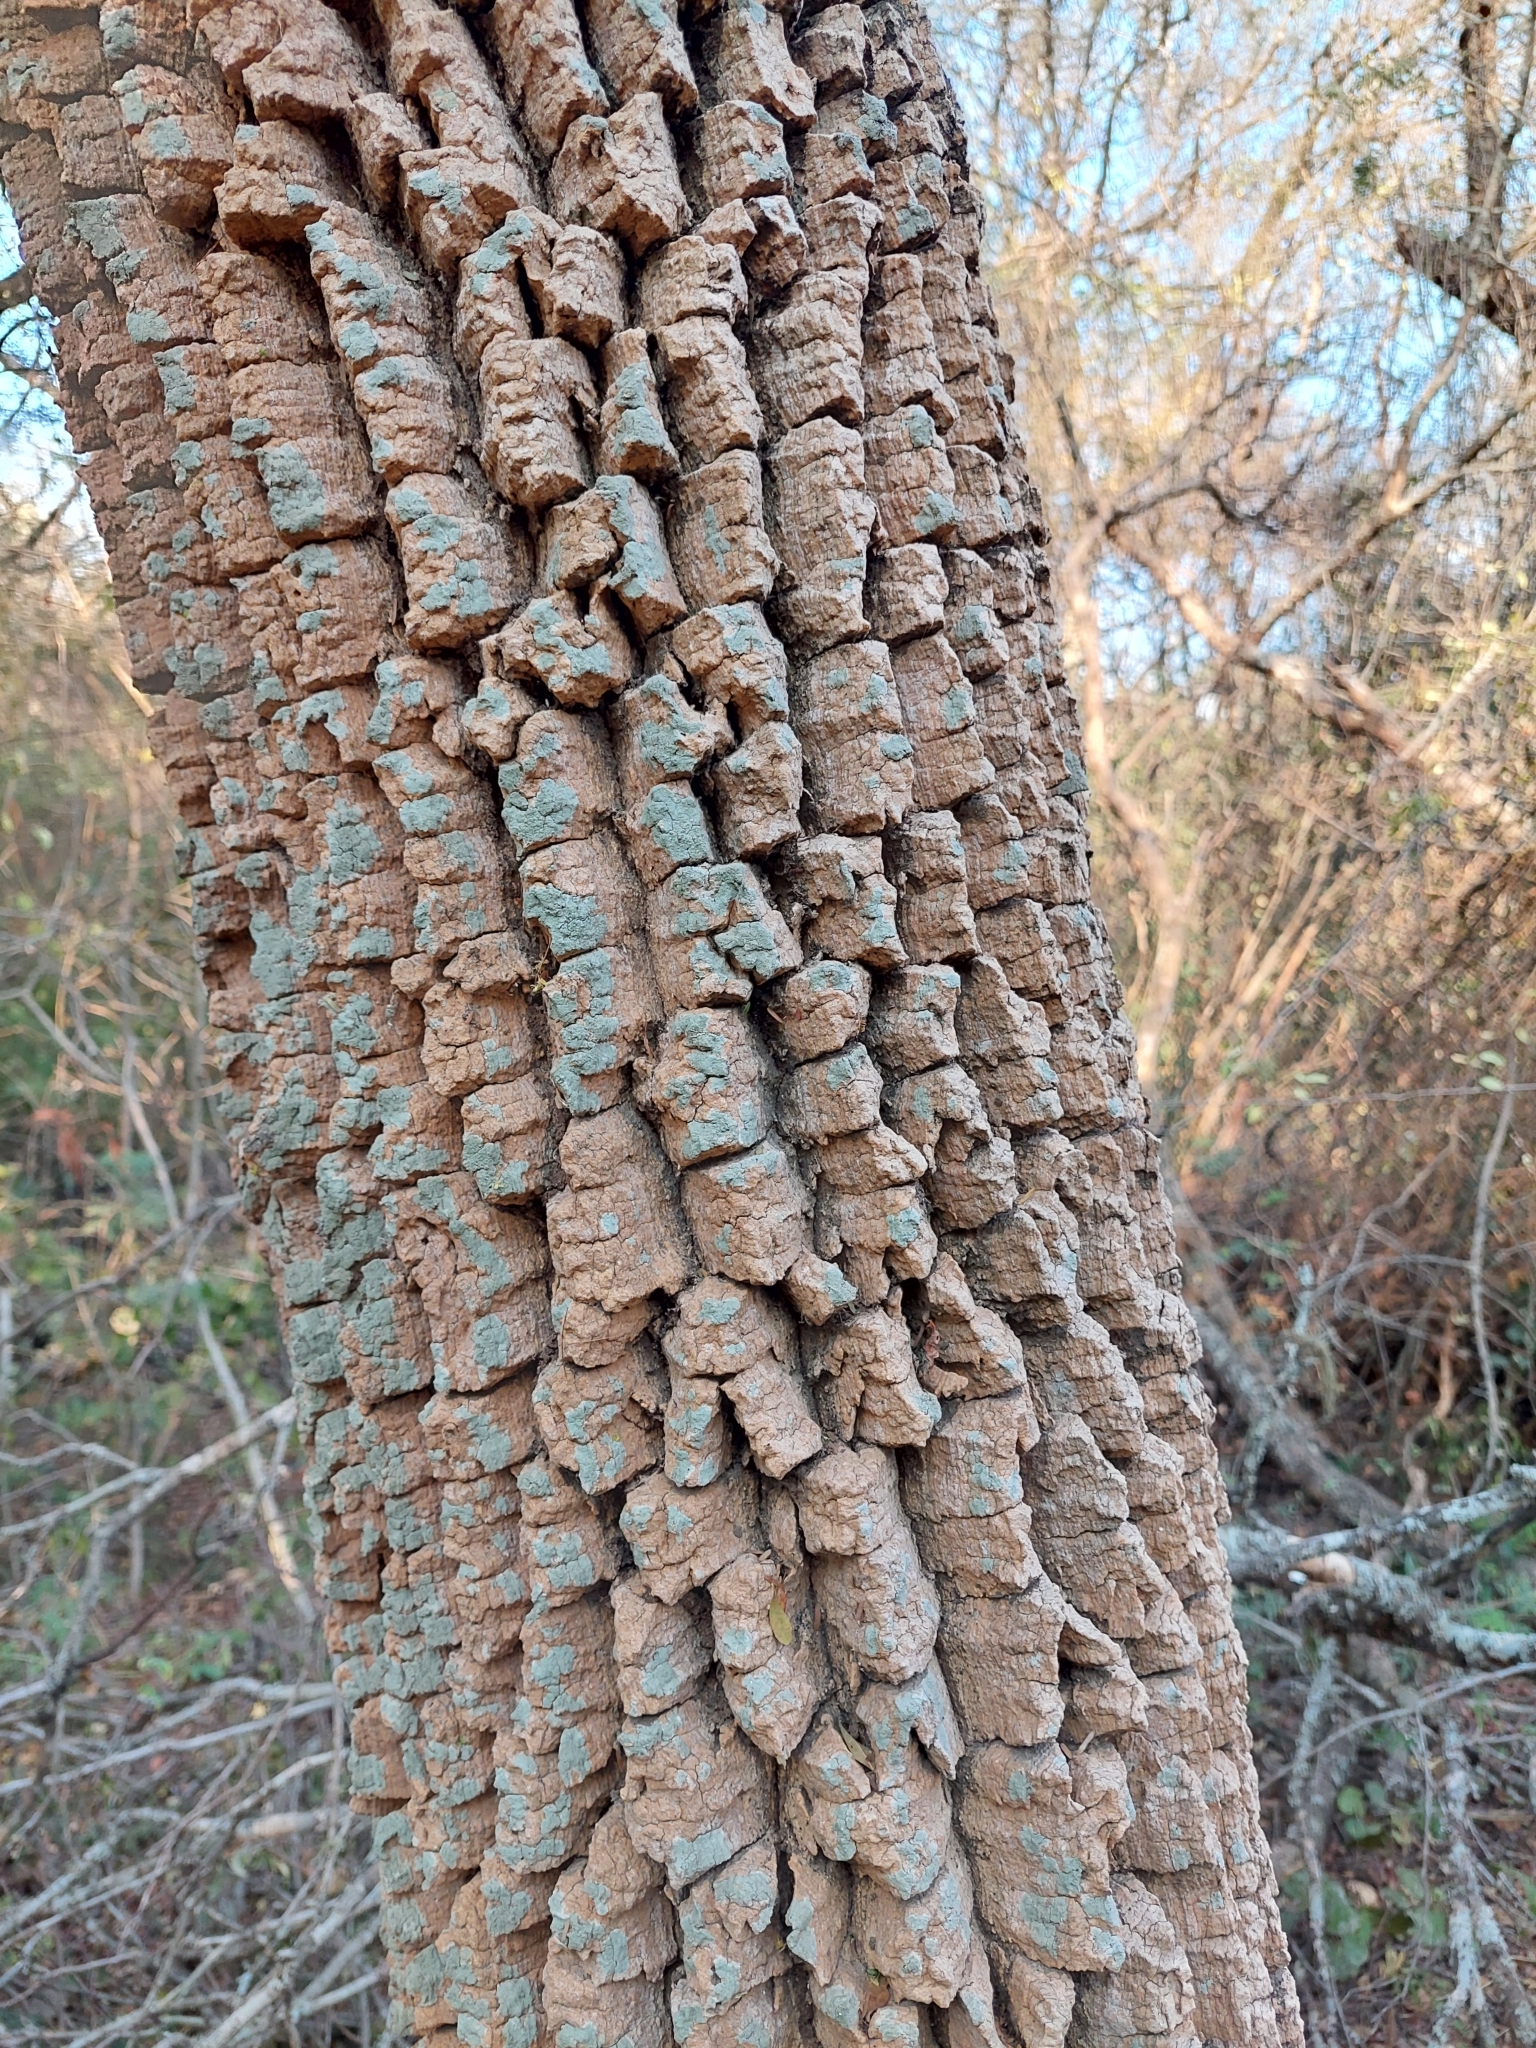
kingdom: Plantae
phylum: Tracheophyta
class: Magnoliopsida
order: Gentianales
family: Apocynaceae
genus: Aspidosperma
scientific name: Aspidosperma quebracho-blanco
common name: White quebracho
